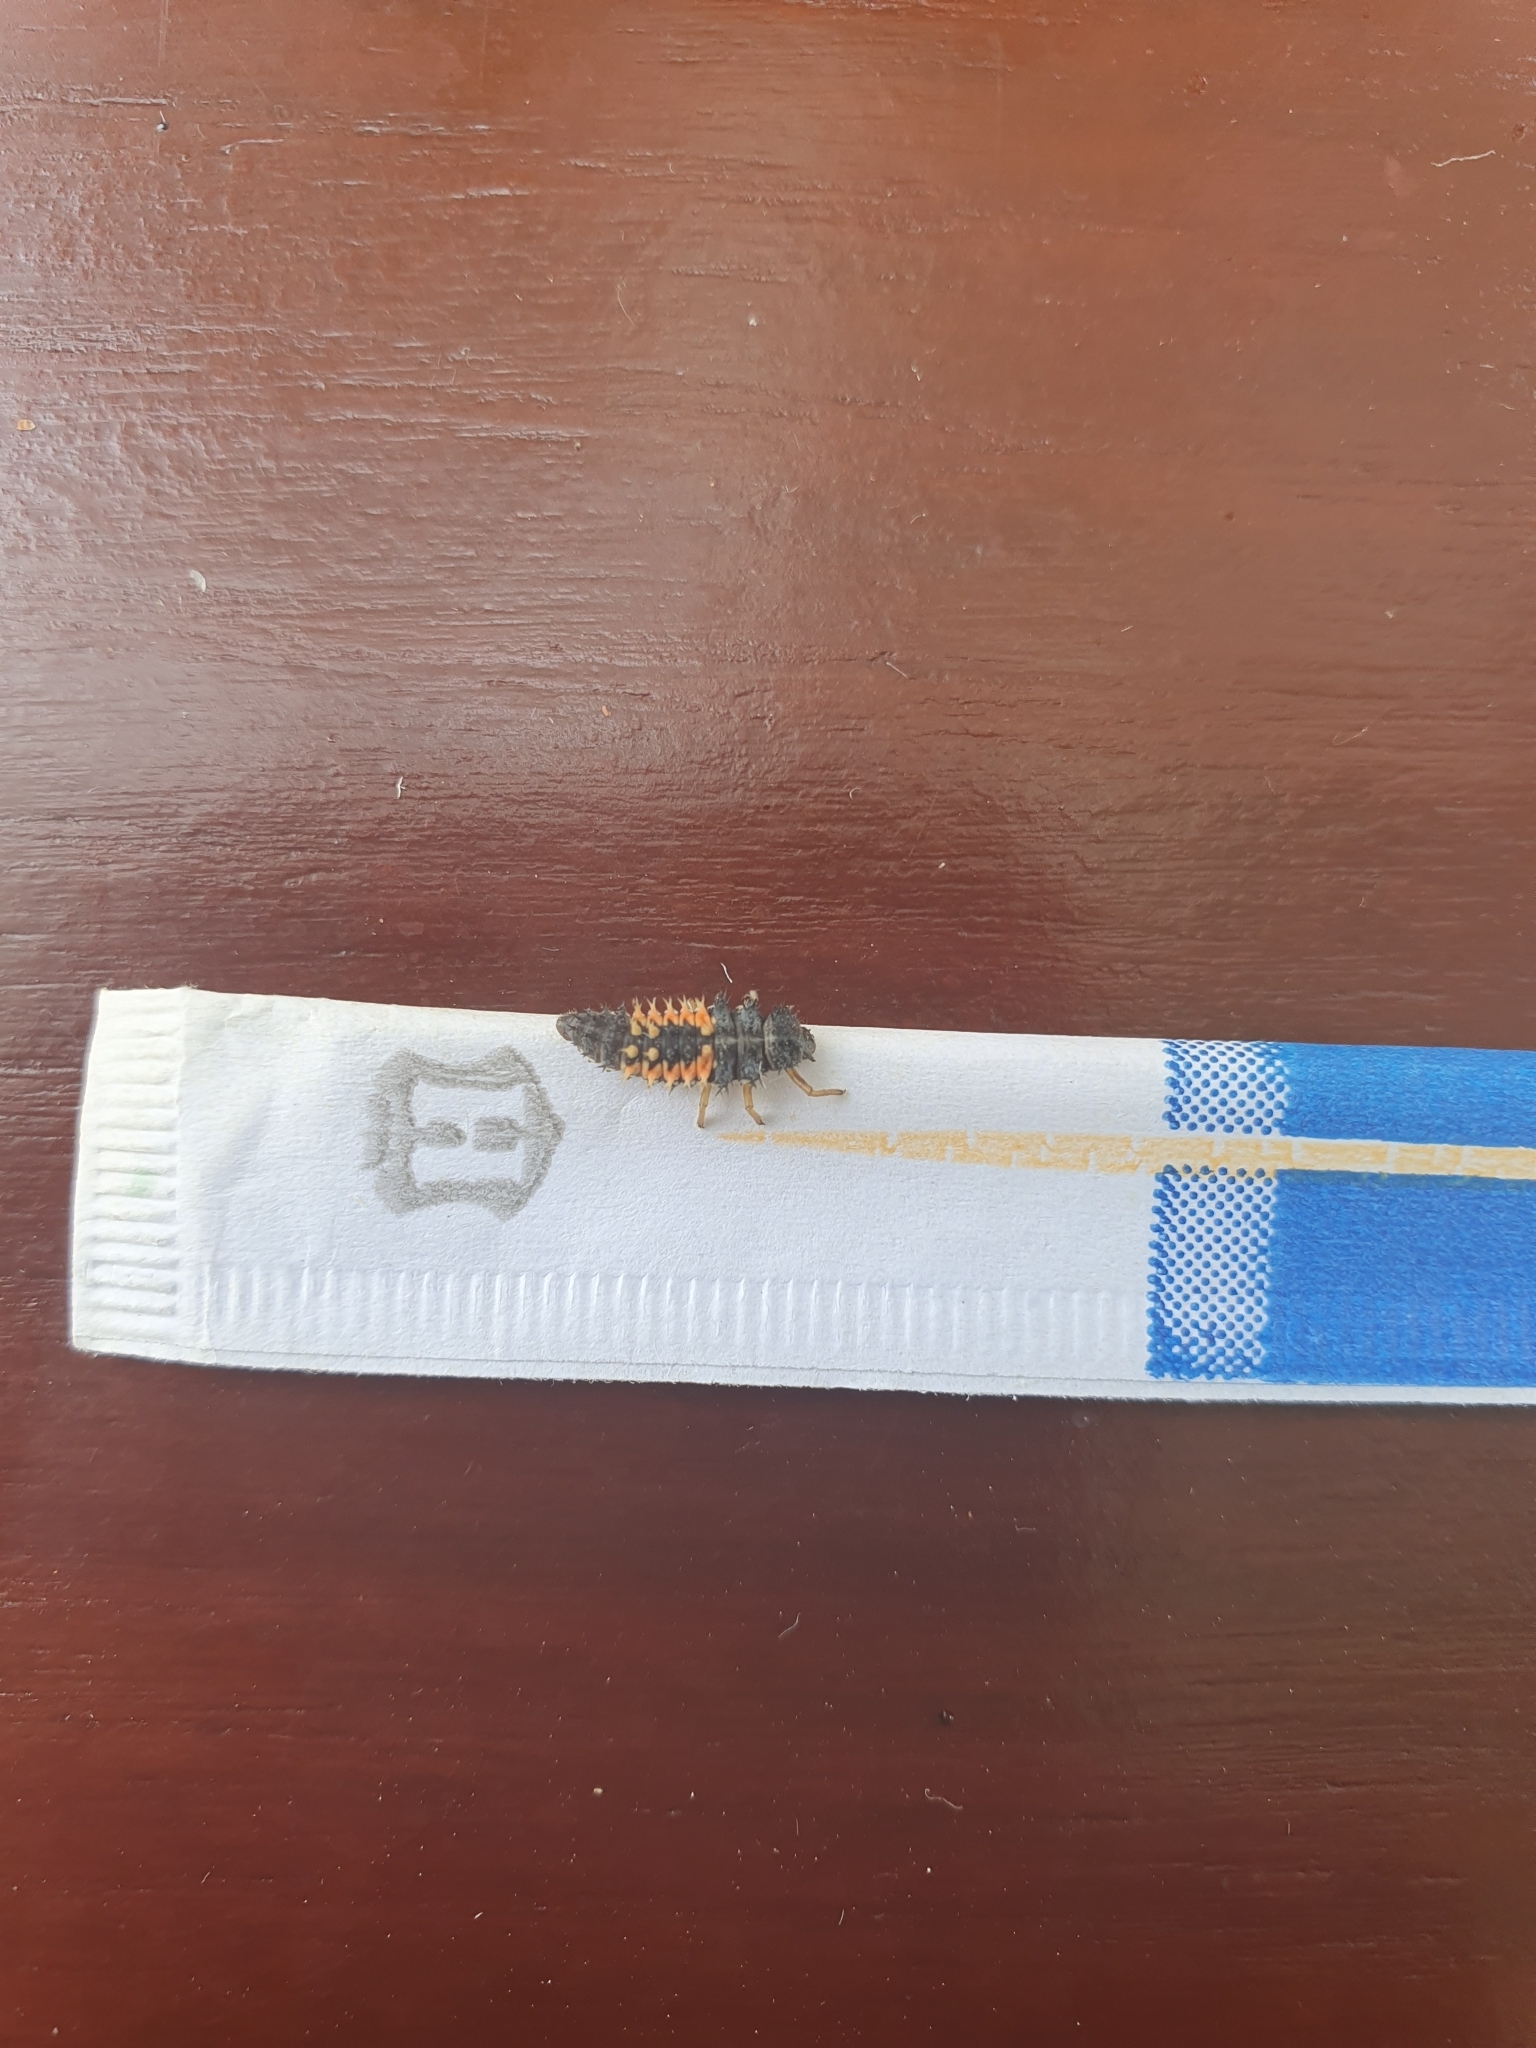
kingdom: Animalia
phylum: Arthropoda
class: Insecta
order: Coleoptera
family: Coccinellidae
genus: Harmonia
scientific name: Harmonia axyridis
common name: Harlequin ladybird
